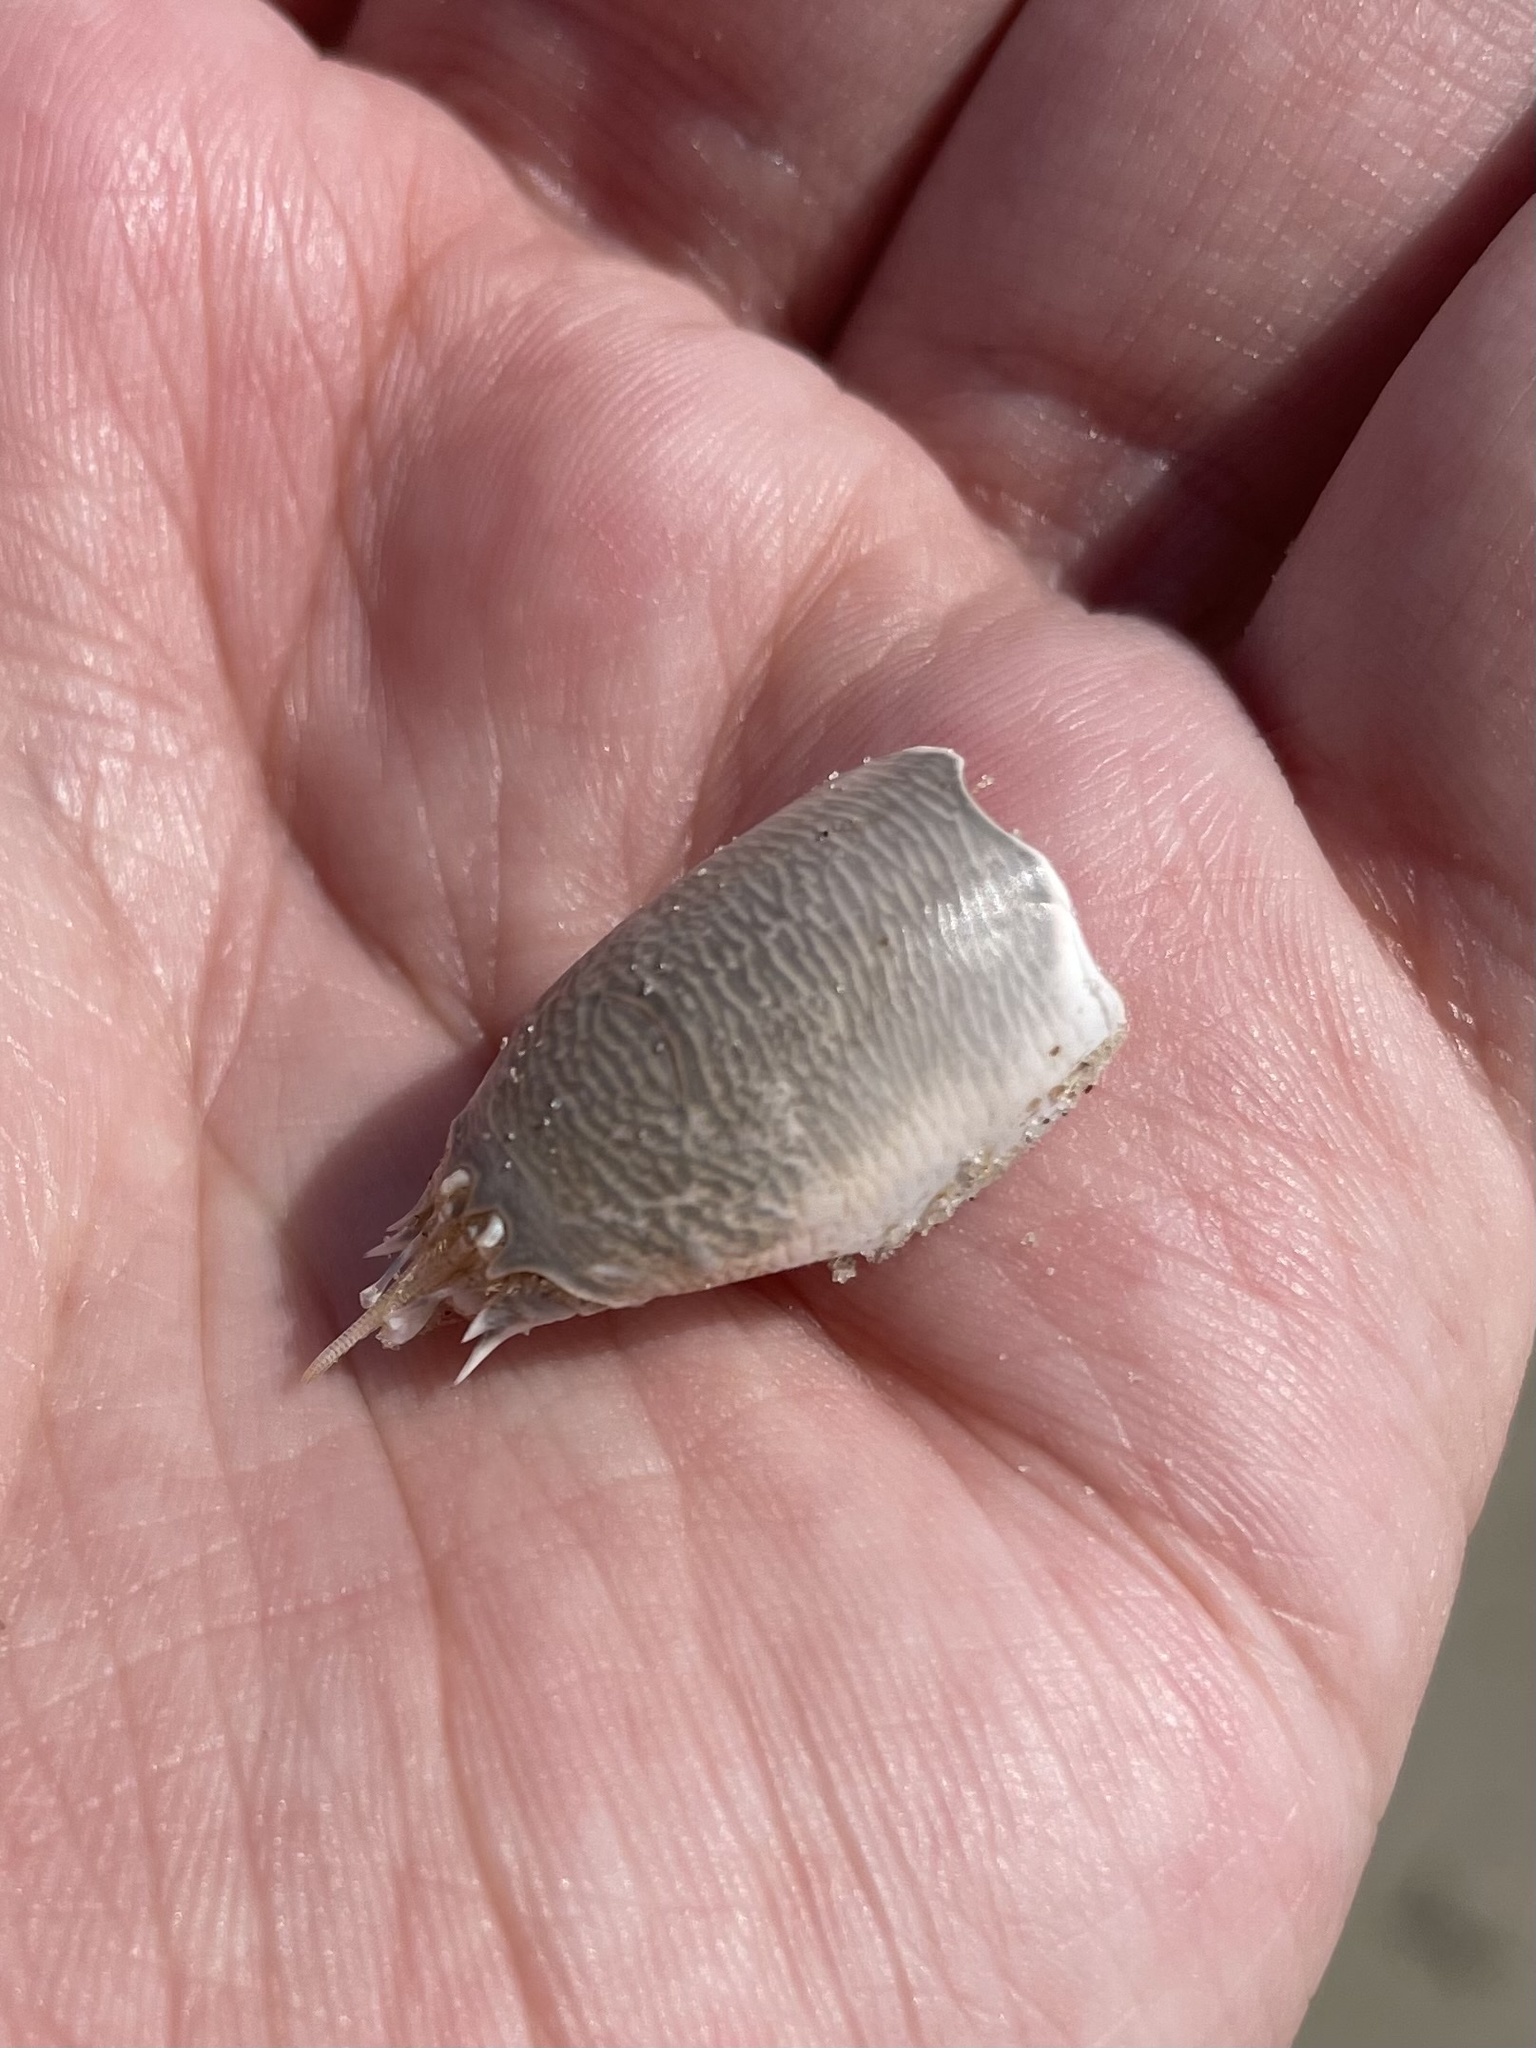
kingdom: Animalia
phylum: Arthropoda
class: Malacostraca
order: Decapoda
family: Hippidae
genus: Emerita
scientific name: Emerita benedicti
